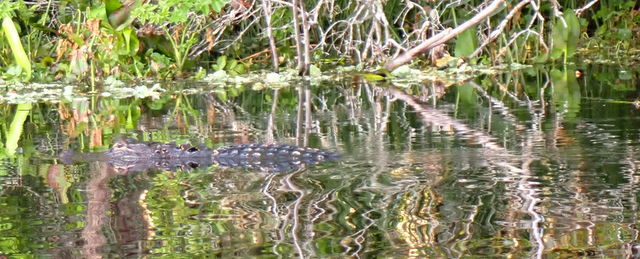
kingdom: Animalia
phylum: Chordata
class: Crocodylia
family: Alligatoridae
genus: Alligator
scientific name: Alligator mississippiensis
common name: American alligator
